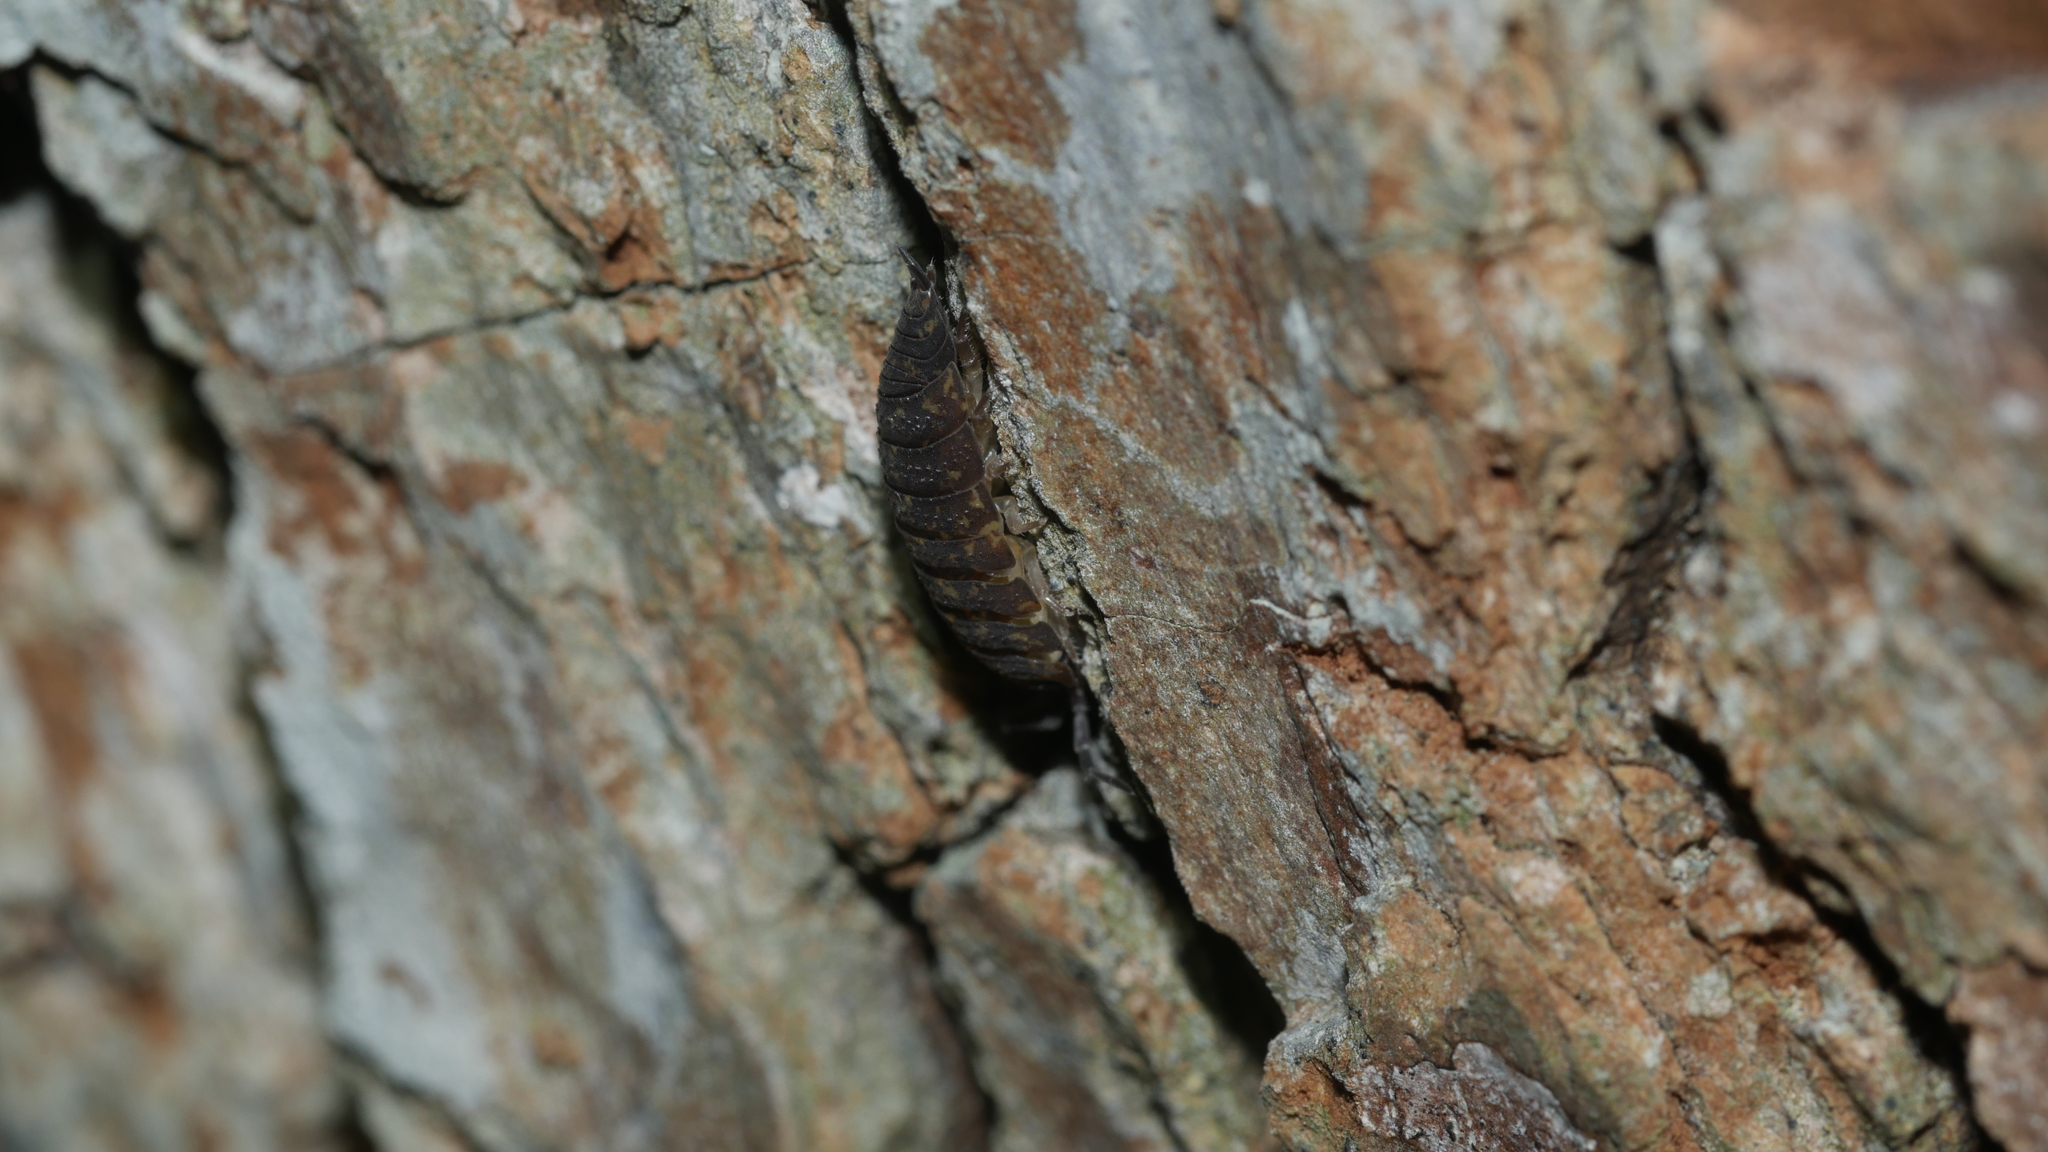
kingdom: Animalia
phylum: Arthropoda
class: Malacostraca
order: Isopoda
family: Porcellionidae
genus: Porcellio
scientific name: Porcellio scaber
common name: Common rough woodlouse
